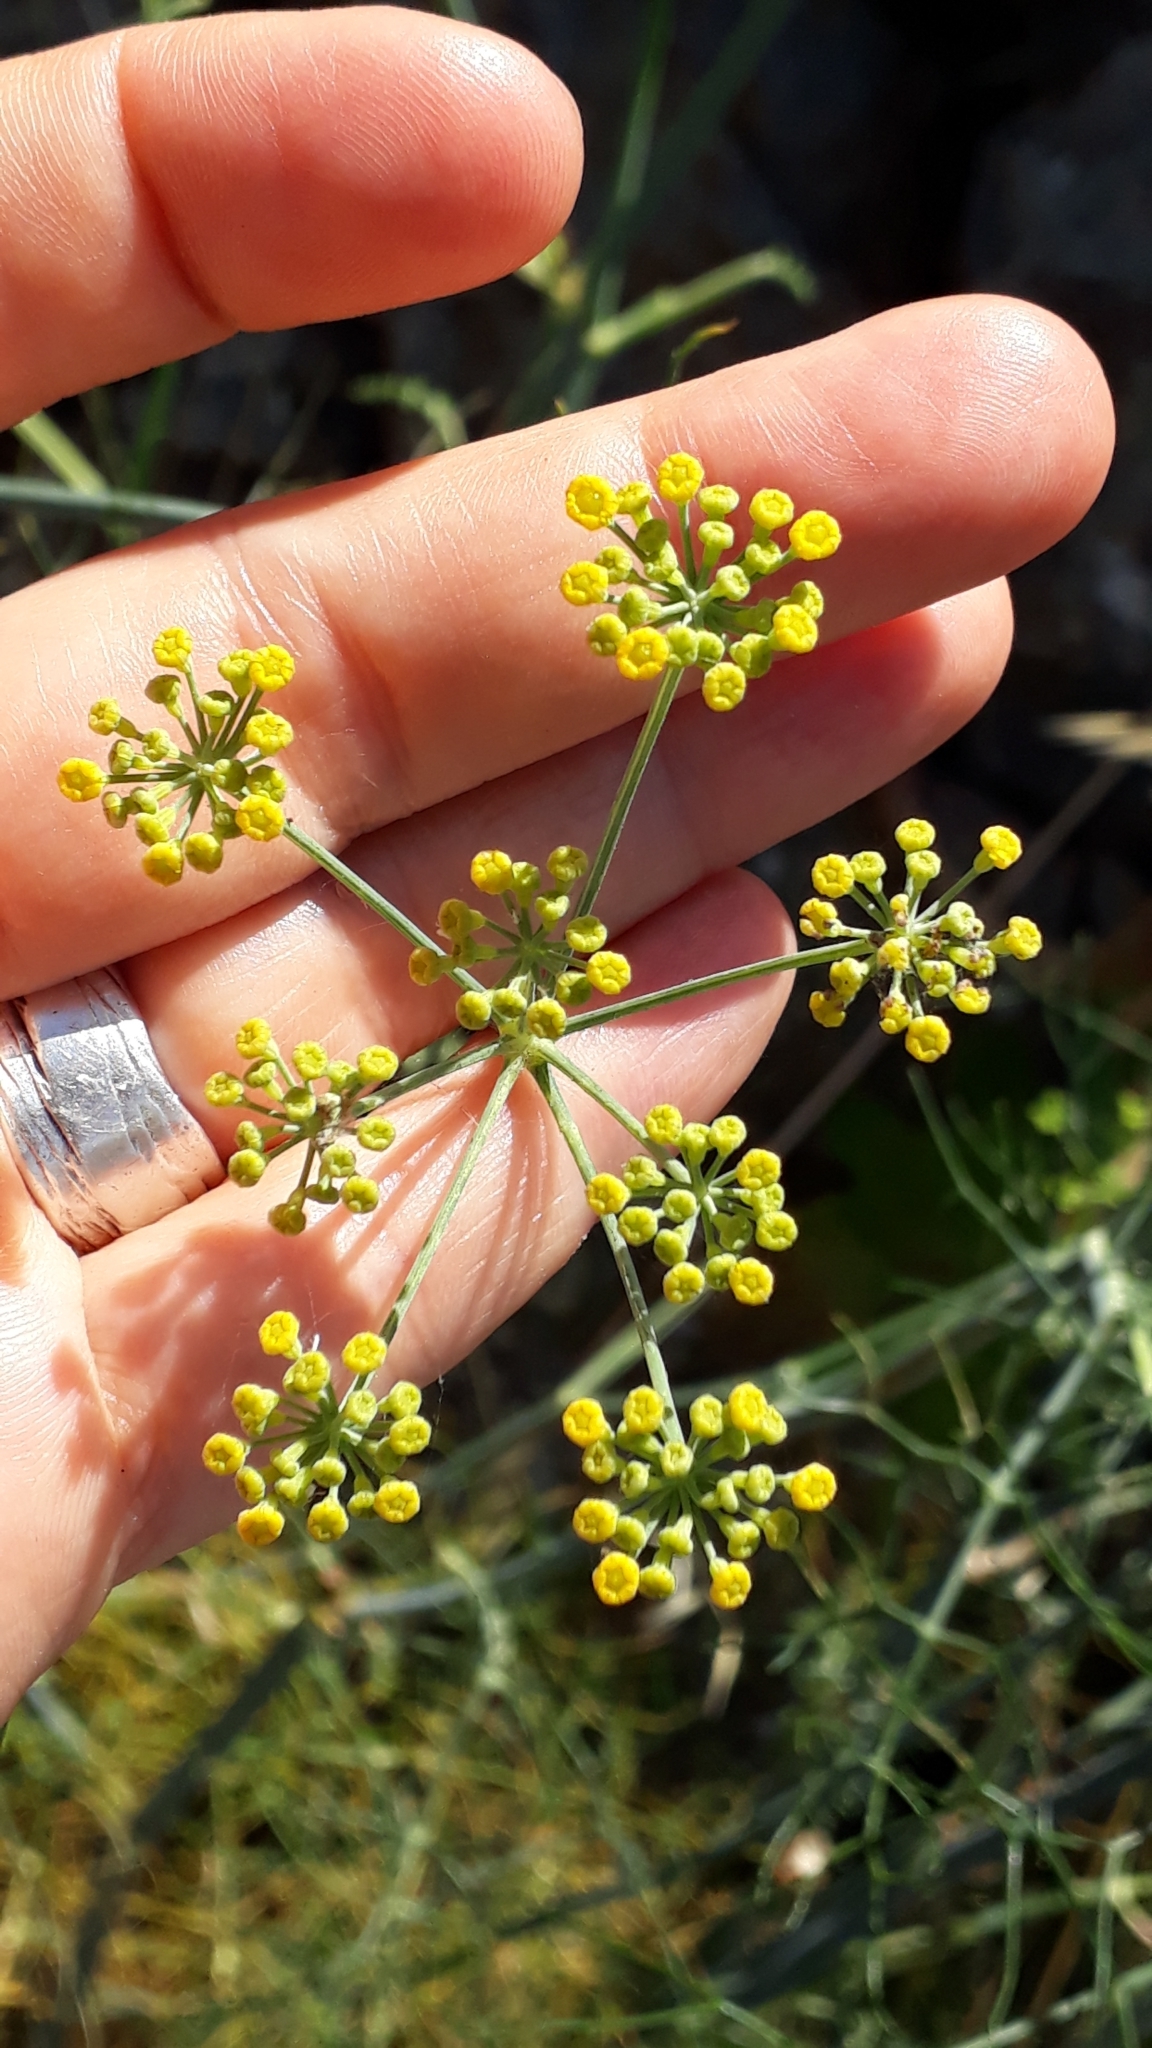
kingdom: Plantae
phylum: Tracheophyta
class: Magnoliopsida
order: Apiales
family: Apiaceae
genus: Foeniculum
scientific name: Foeniculum vulgare
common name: Fennel
